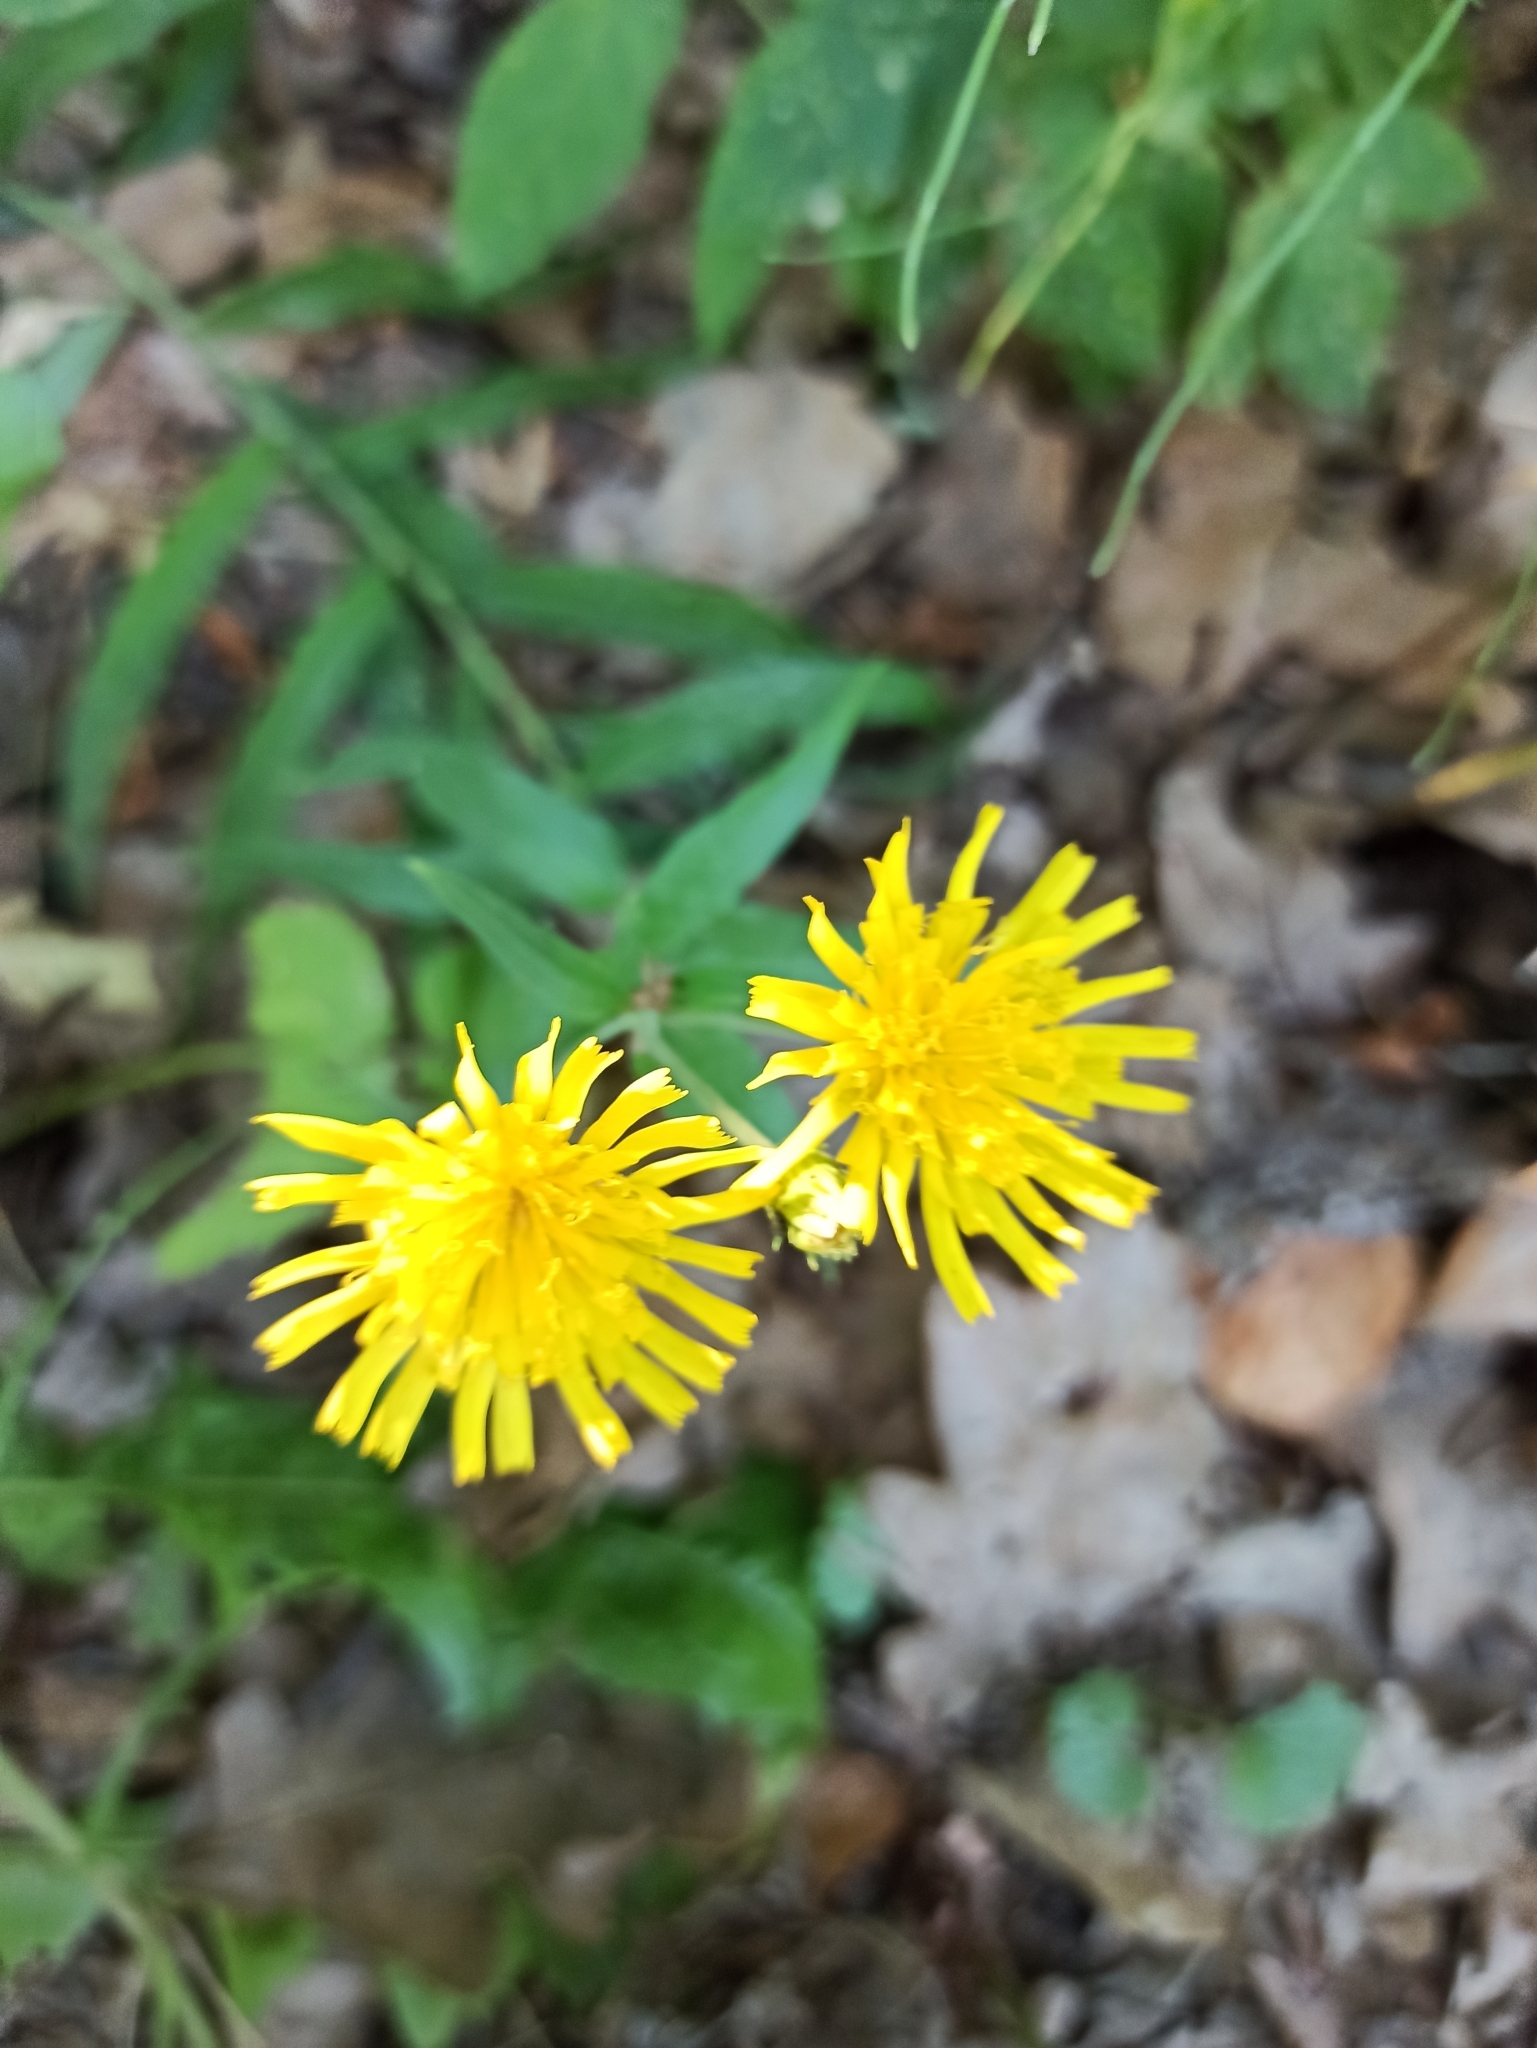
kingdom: Plantae
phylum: Tracheophyta
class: Magnoliopsida
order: Asterales
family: Asteraceae
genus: Hieracium
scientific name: Hieracium umbellatum
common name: Northern hawkweed
